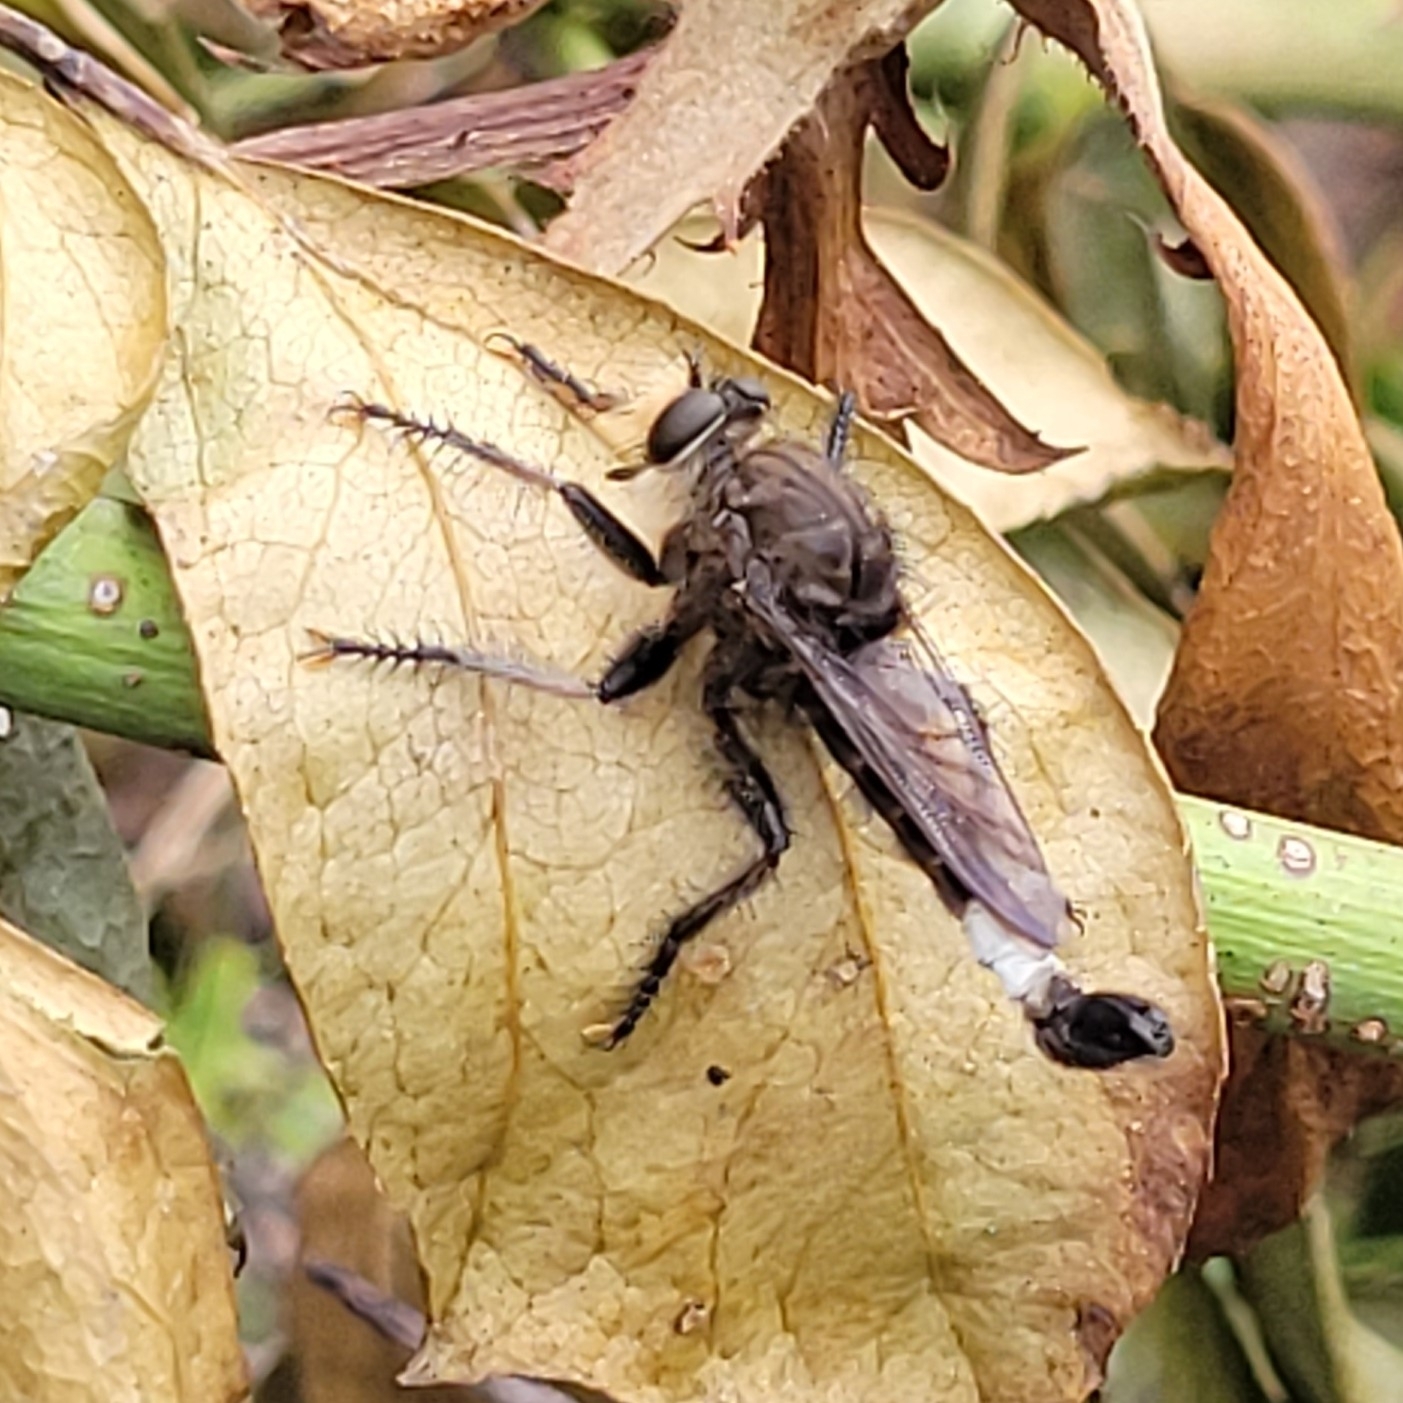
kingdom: Animalia
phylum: Arthropoda
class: Insecta
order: Diptera
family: Asilidae
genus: Efferia
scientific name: Efferia pogonias
